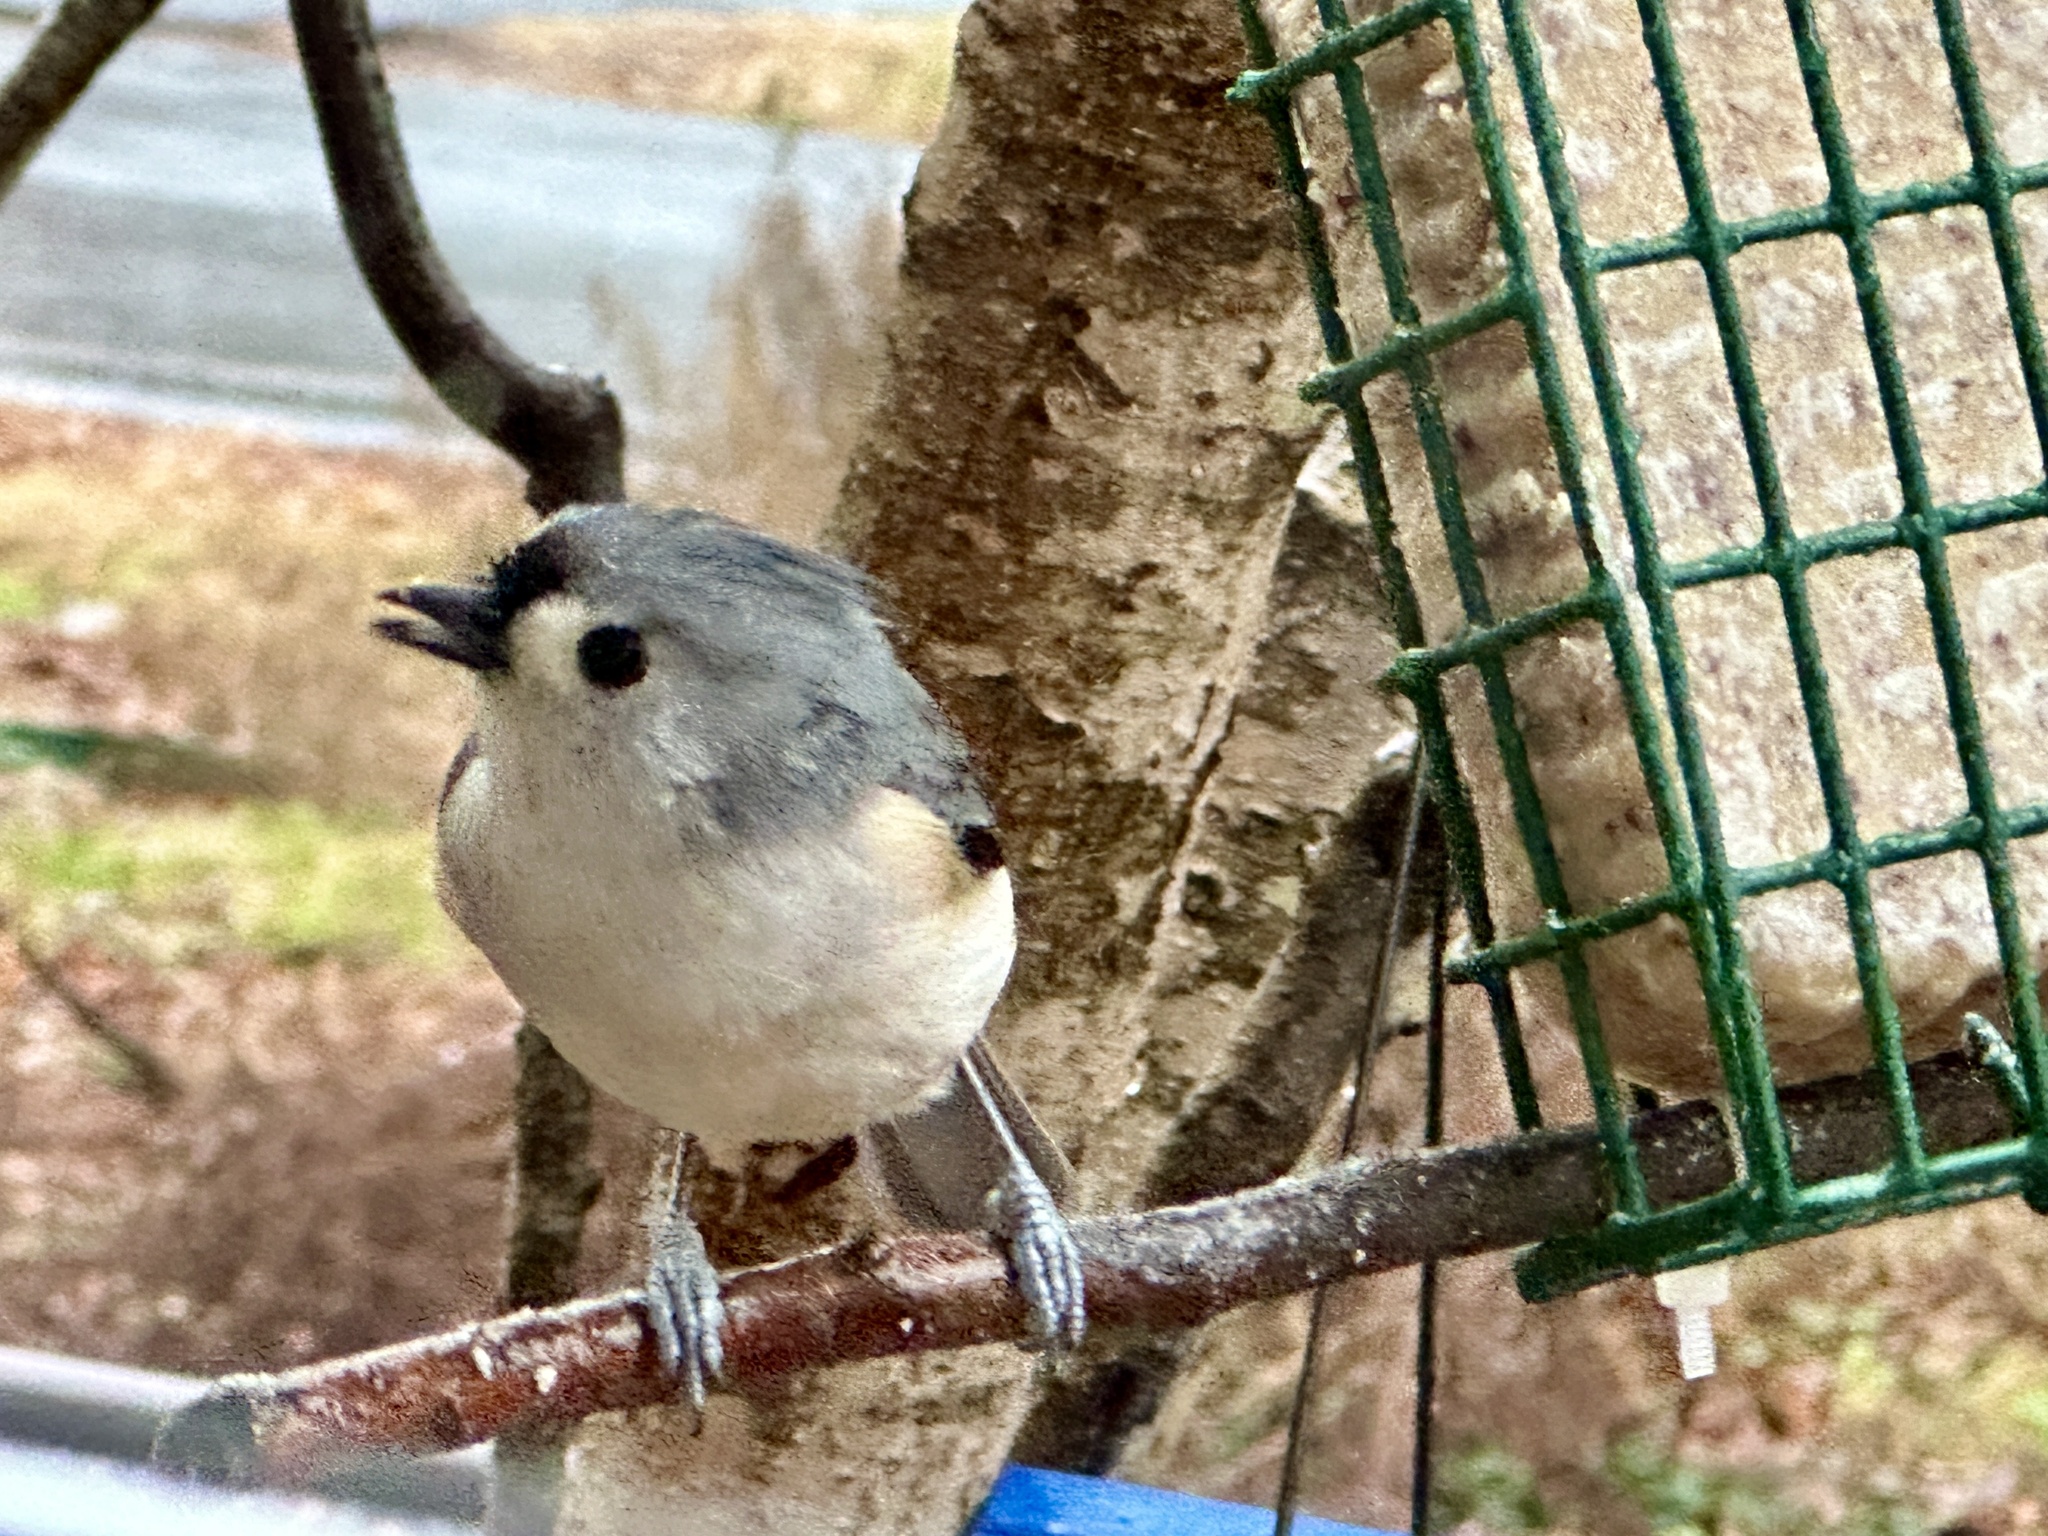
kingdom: Animalia
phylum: Chordata
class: Aves
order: Passeriformes
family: Paridae
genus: Baeolophus
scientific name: Baeolophus bicolor
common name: Tufted titmouse
